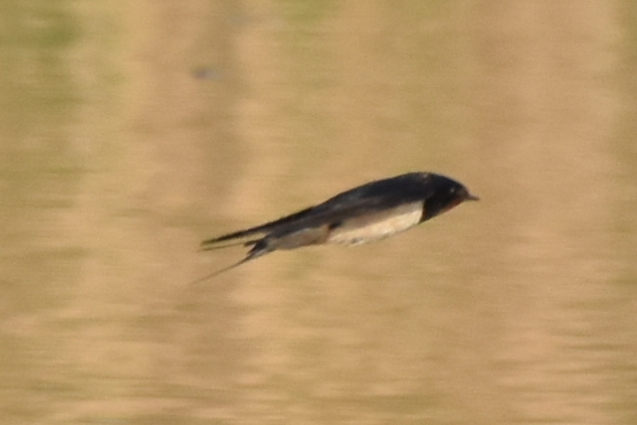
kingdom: Animalia
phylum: Chordata
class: Aves
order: Passeriformes
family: Hirundinidae
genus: Hirundo
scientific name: Hirundo rustica
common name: Barn swallow
